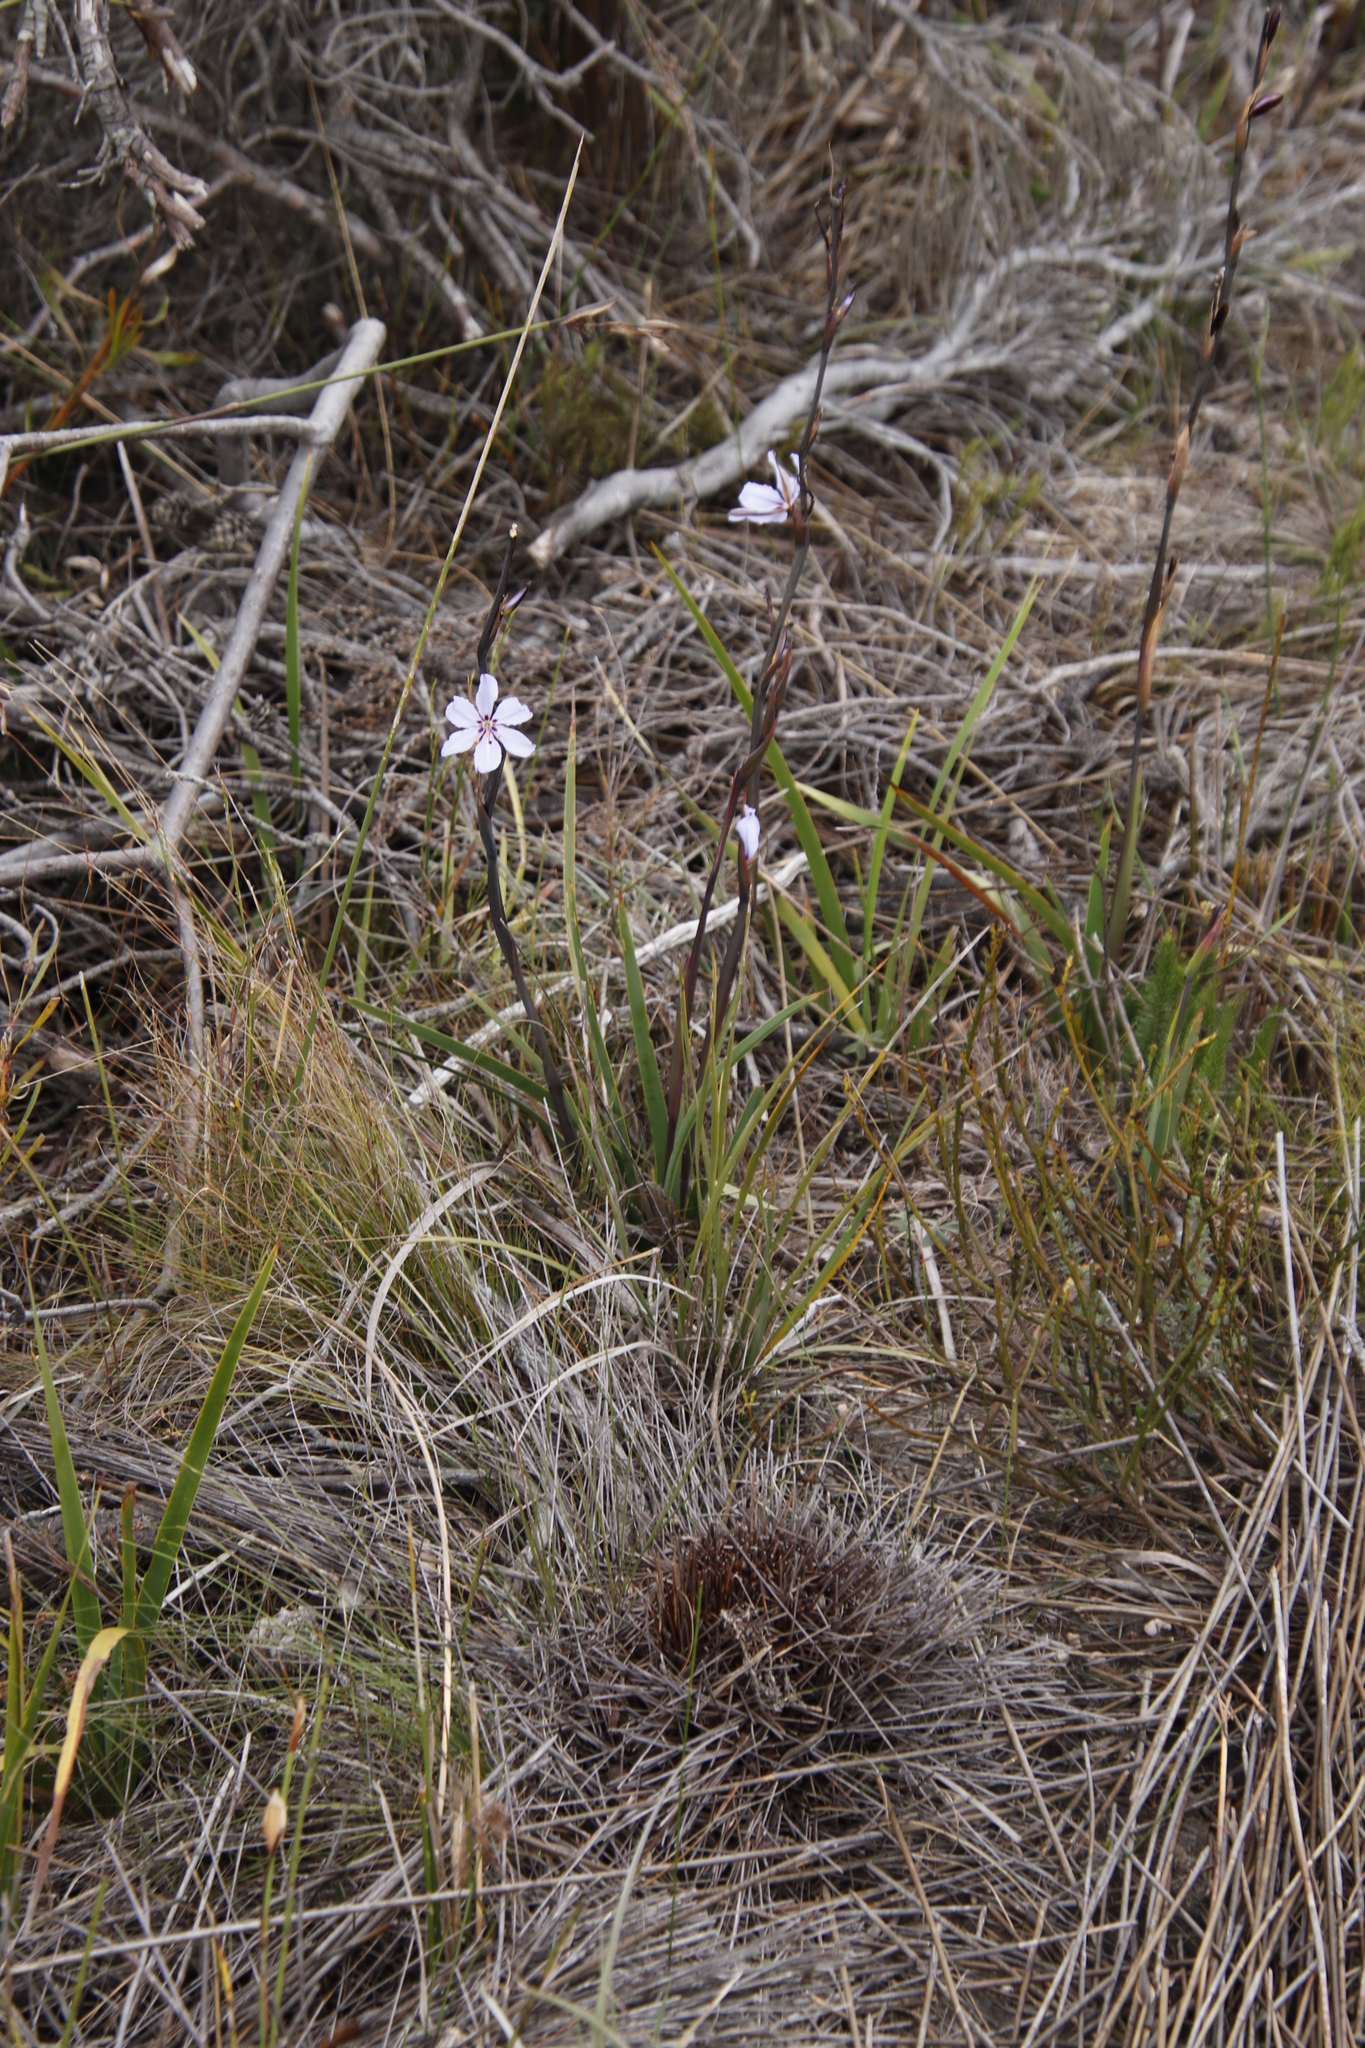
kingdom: Plantae
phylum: Tracheophyta
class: Liliopsida
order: Asparagales
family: Iridaceae
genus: Aristea
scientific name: Aristea spiralis
